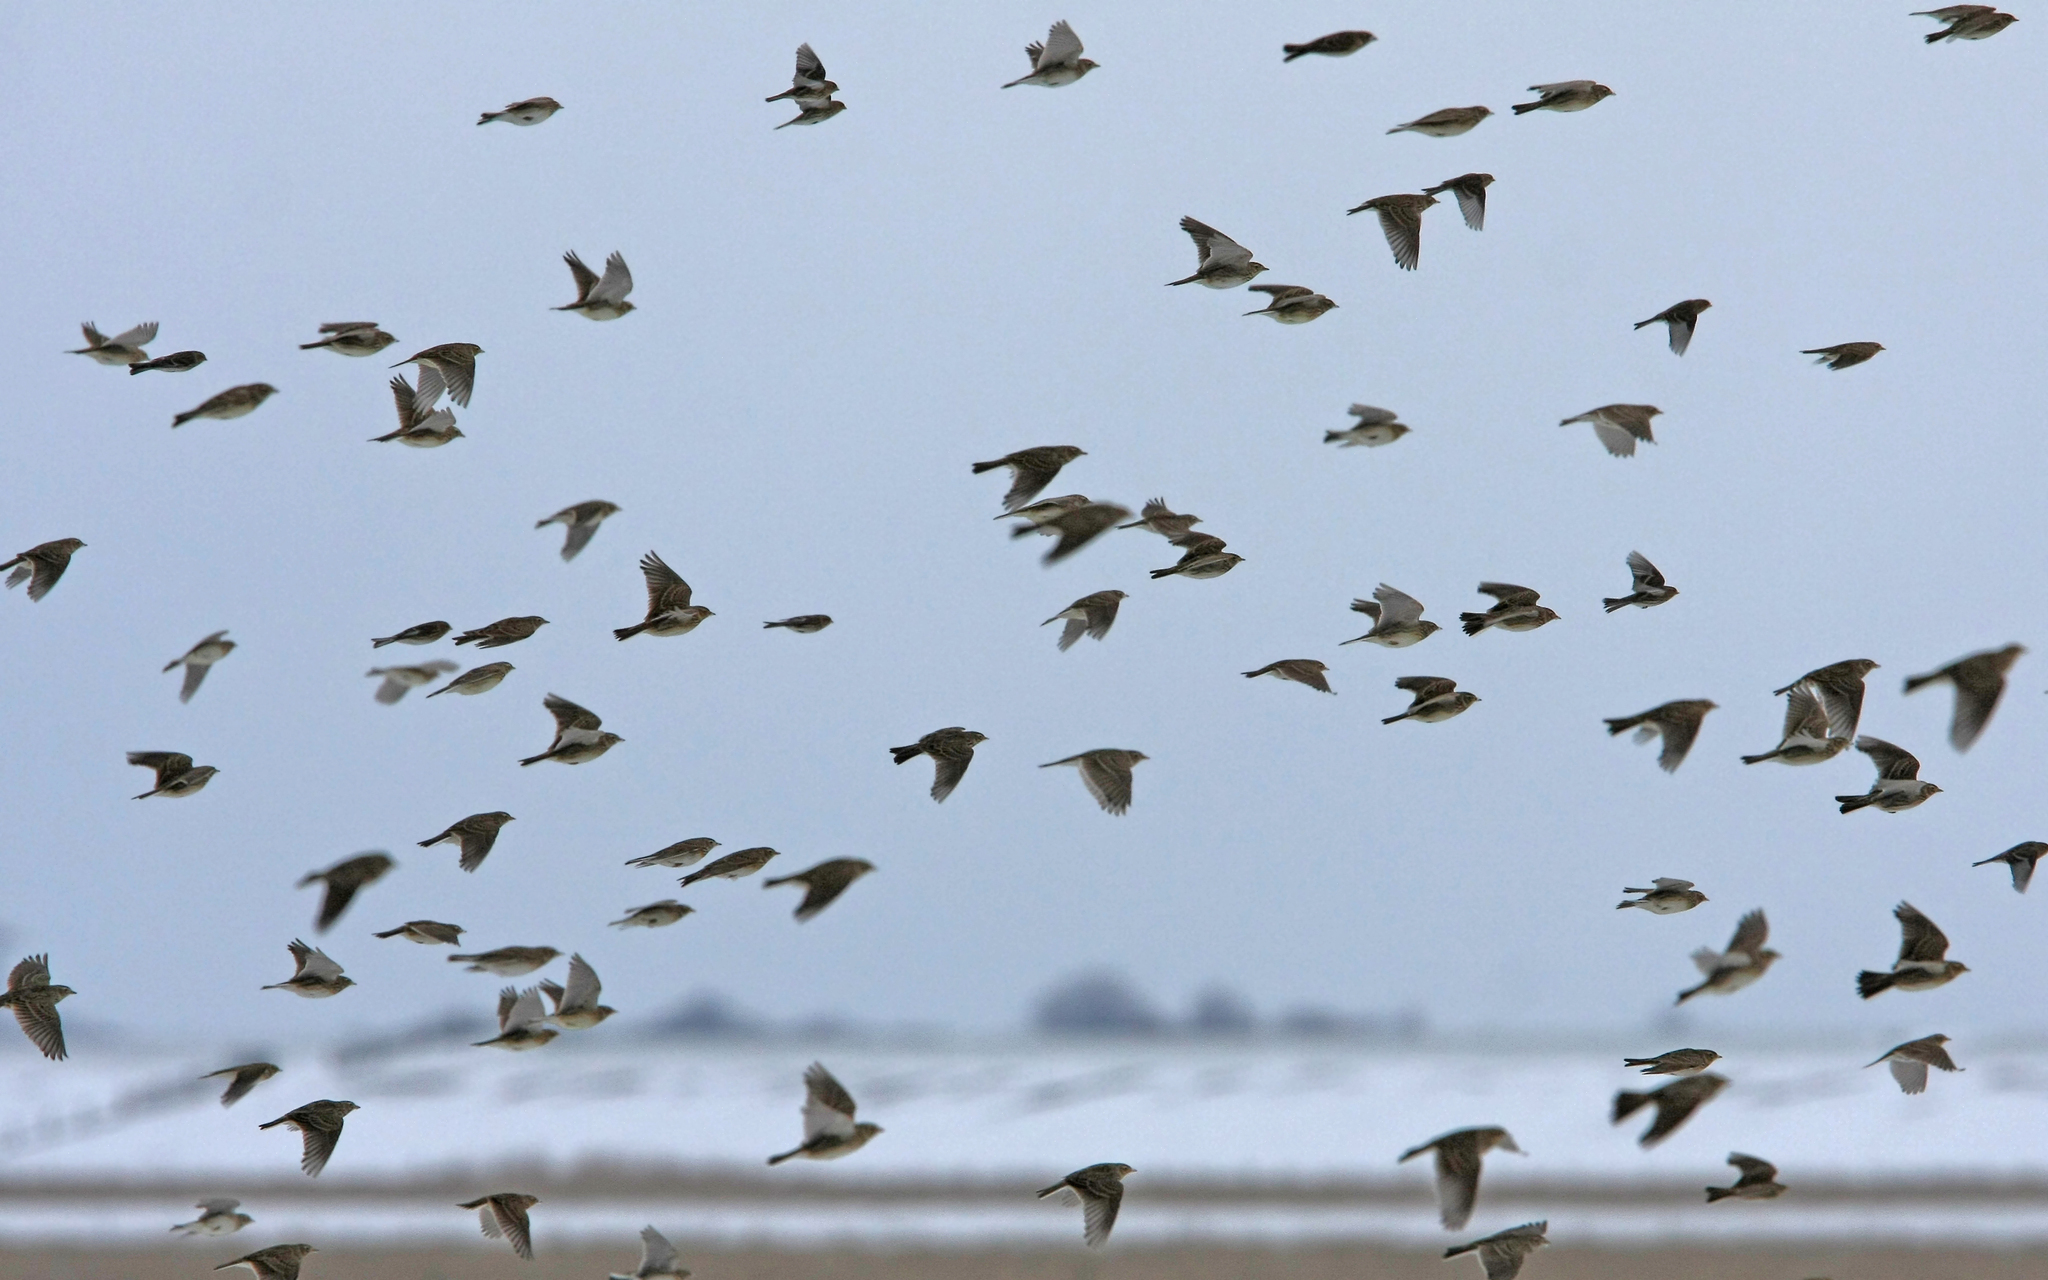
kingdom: Animalia
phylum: Chordata
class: Aves
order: Passeriformes
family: Alaudidae
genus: Alauda
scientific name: Alauda arvensis
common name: Eurasian skylark
